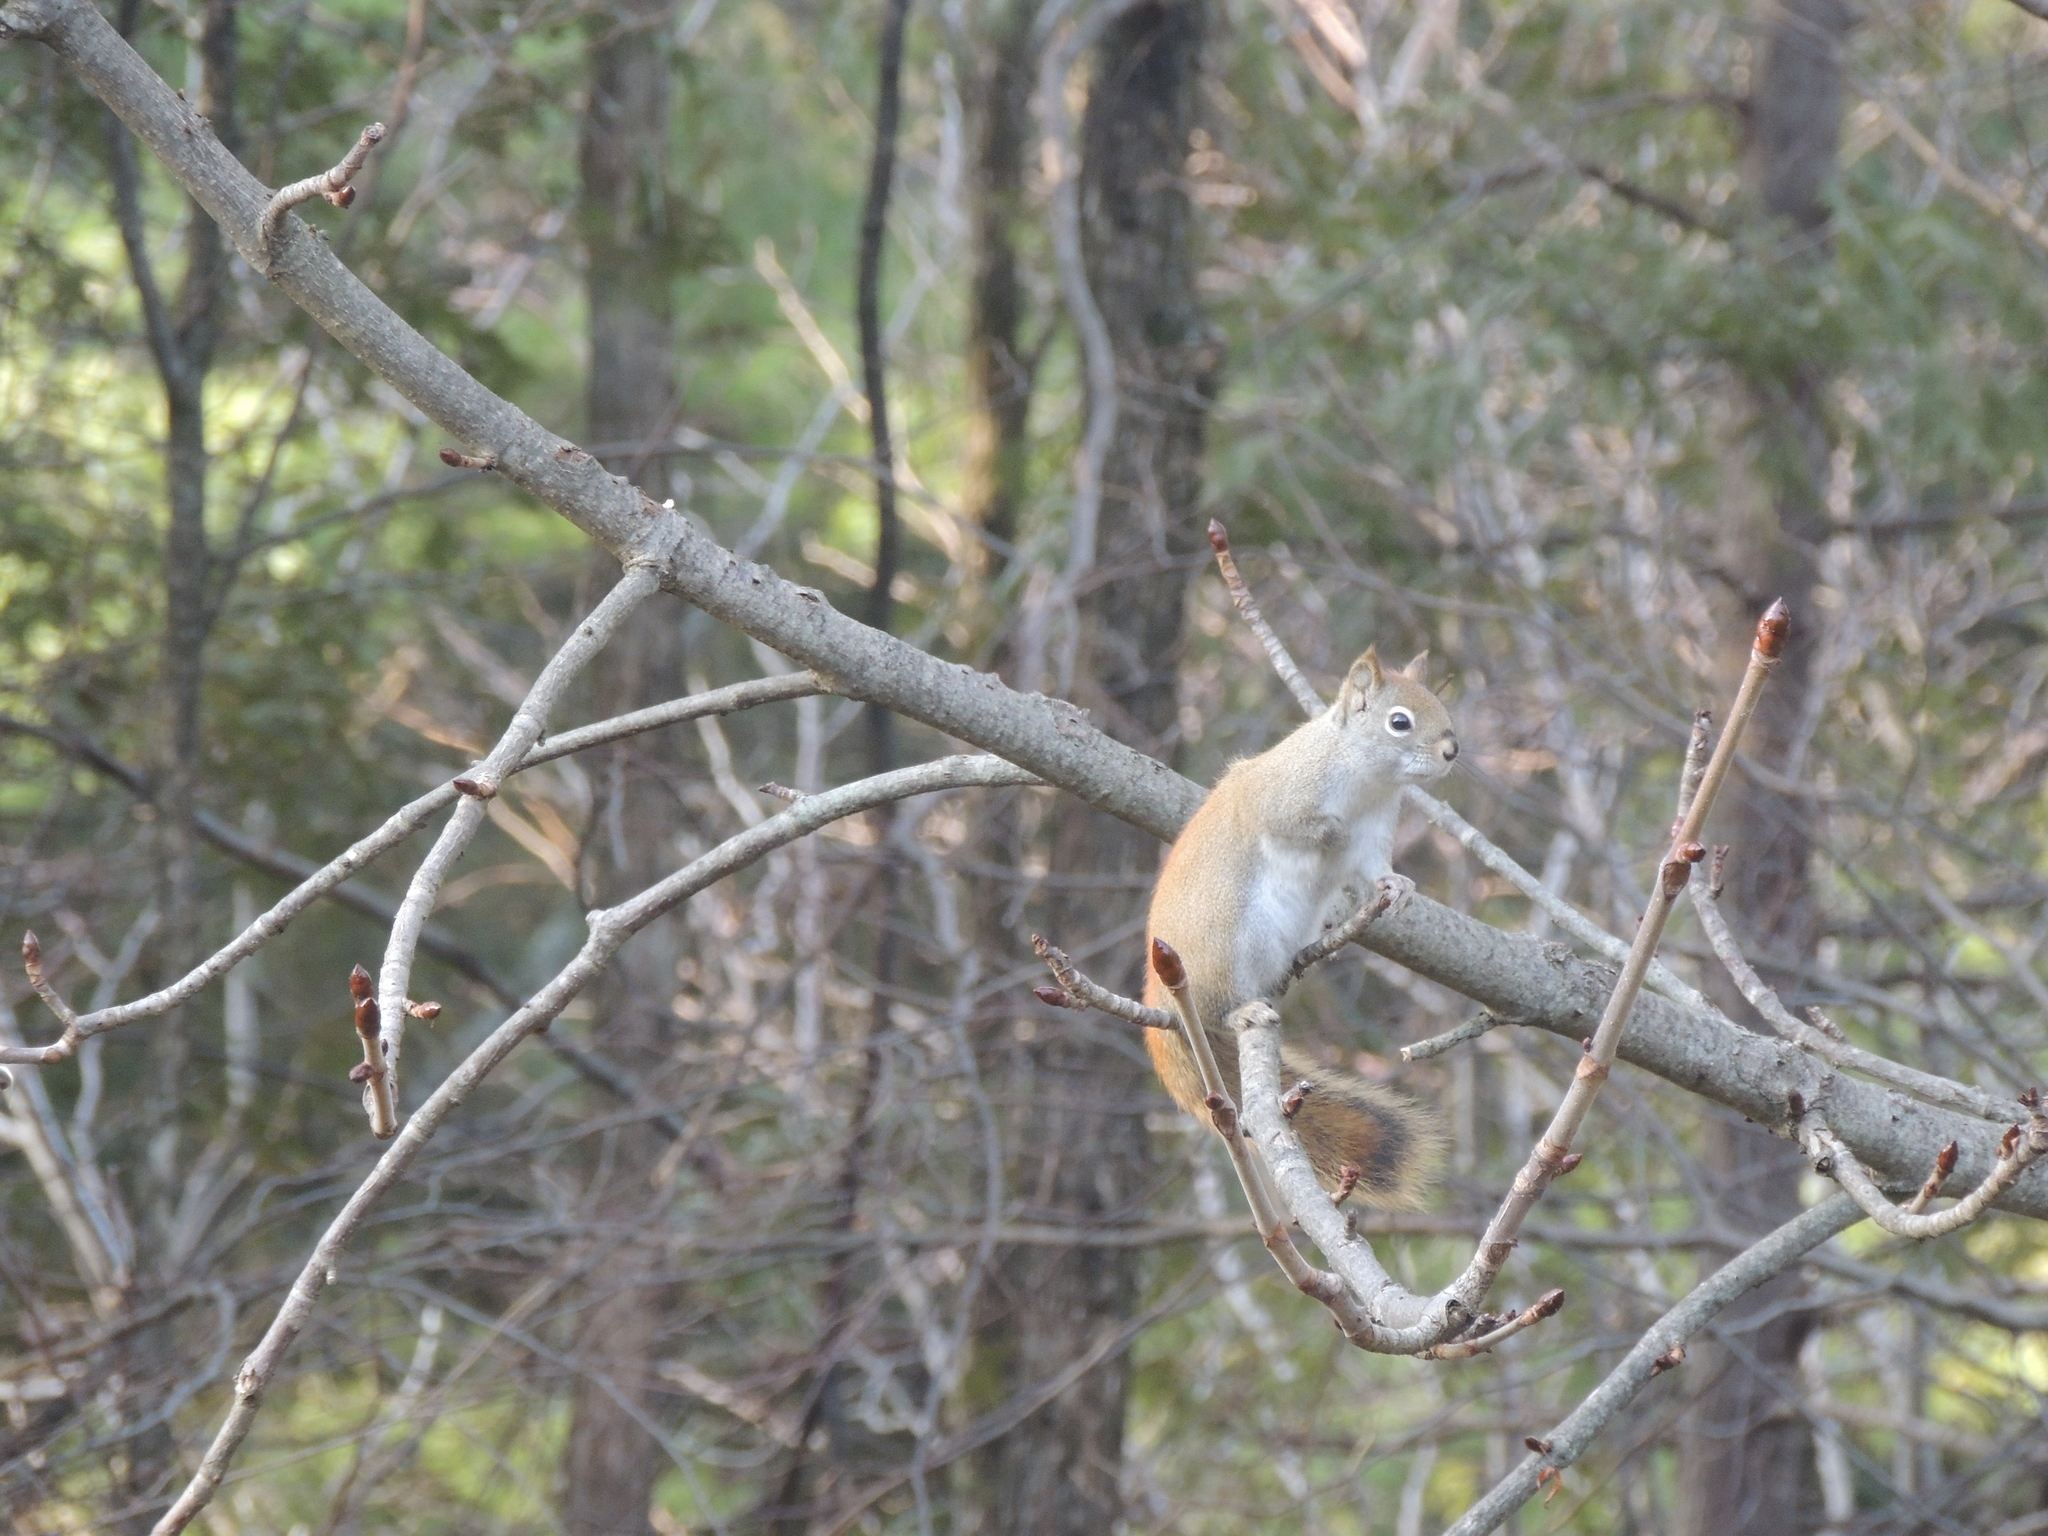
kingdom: Animalia
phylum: Chordata
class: Mammalia
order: Rodentia
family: Sciuridae
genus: Tamiasciurus
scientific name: Tamiasciurus hudsonicus
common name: Red squirrel
